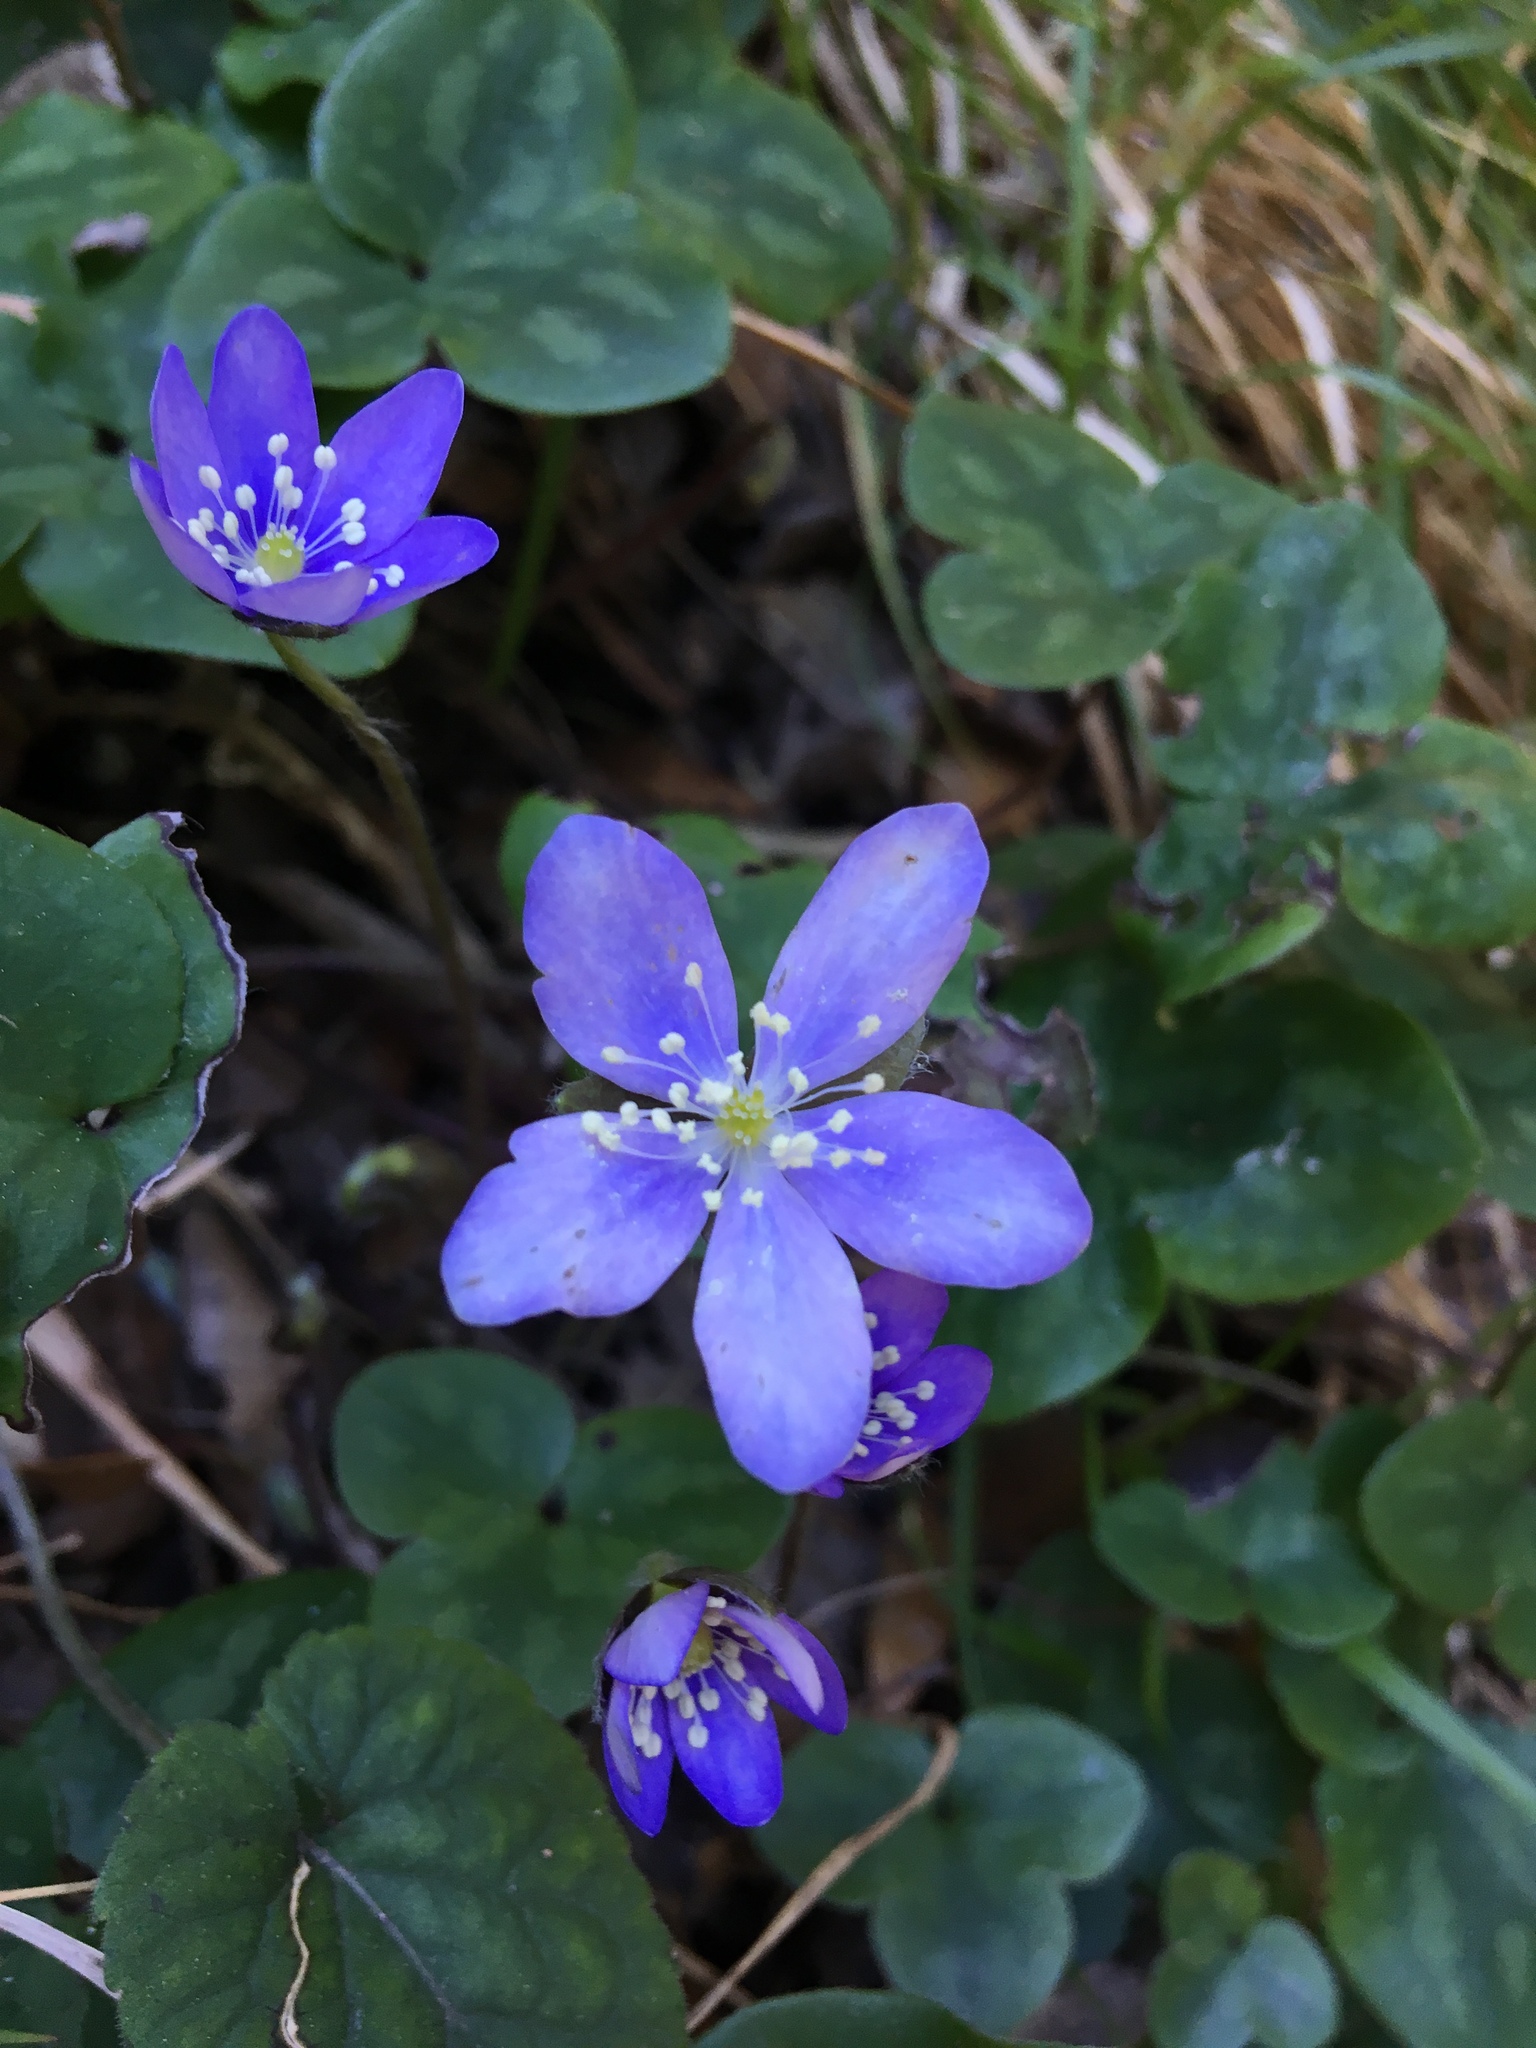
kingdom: Plantae
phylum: Tracheophyta
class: Magnoliopsida
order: Ranunculales
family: Ranunculaceae
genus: Hepatica
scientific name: Hepatica nobilis
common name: Liverleaf
